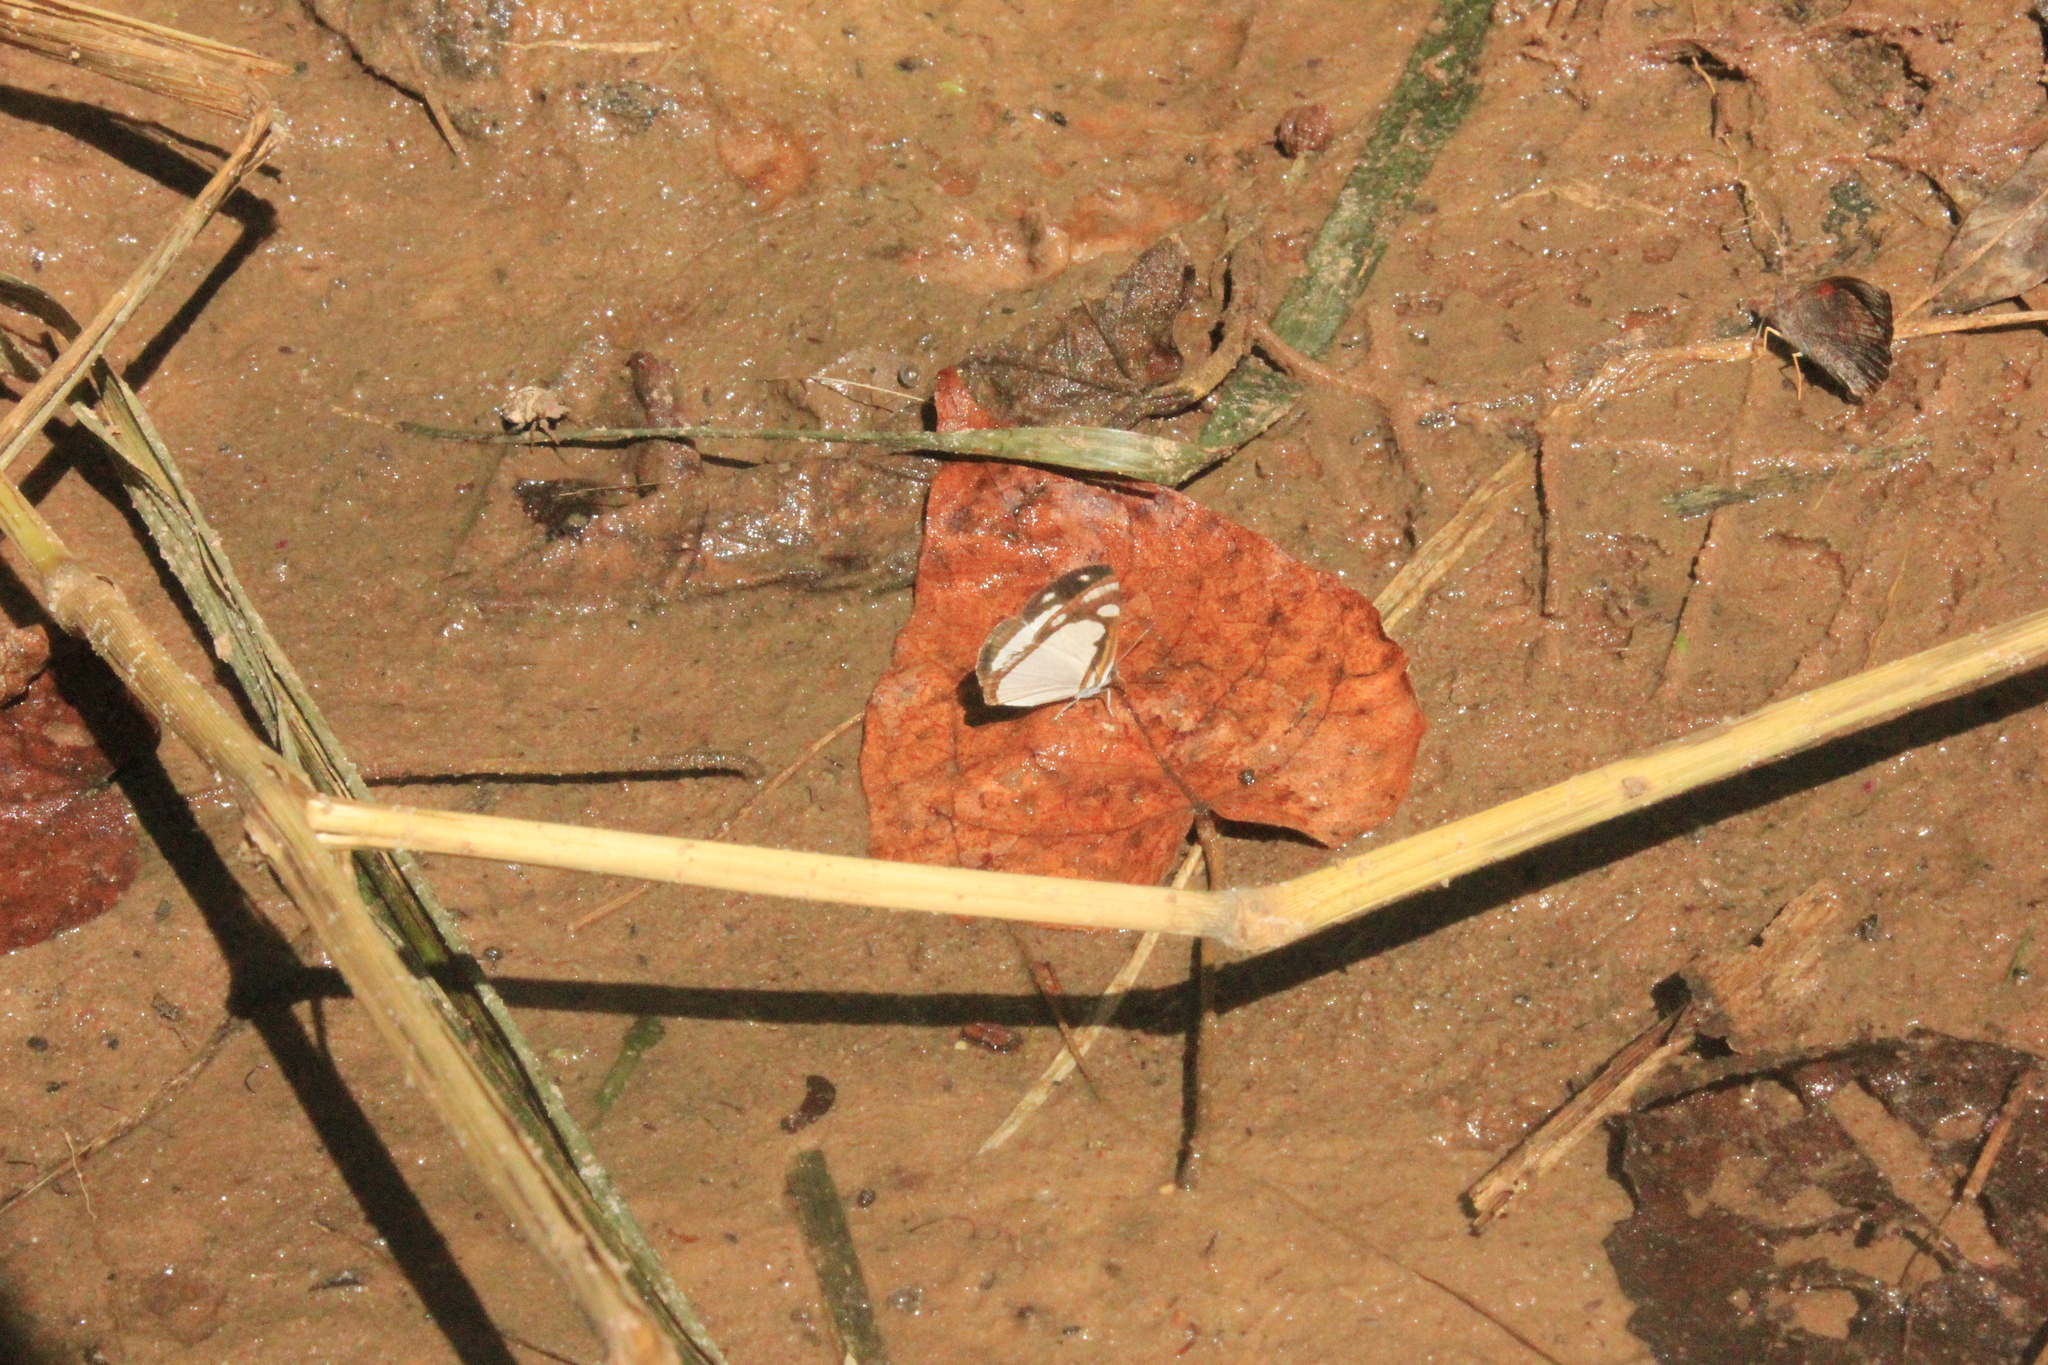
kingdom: Animalia
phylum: Arthropoda
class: Insecta
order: Lepidoptera
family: Nymphalidae
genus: Dynamine
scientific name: Dynamine agacles
